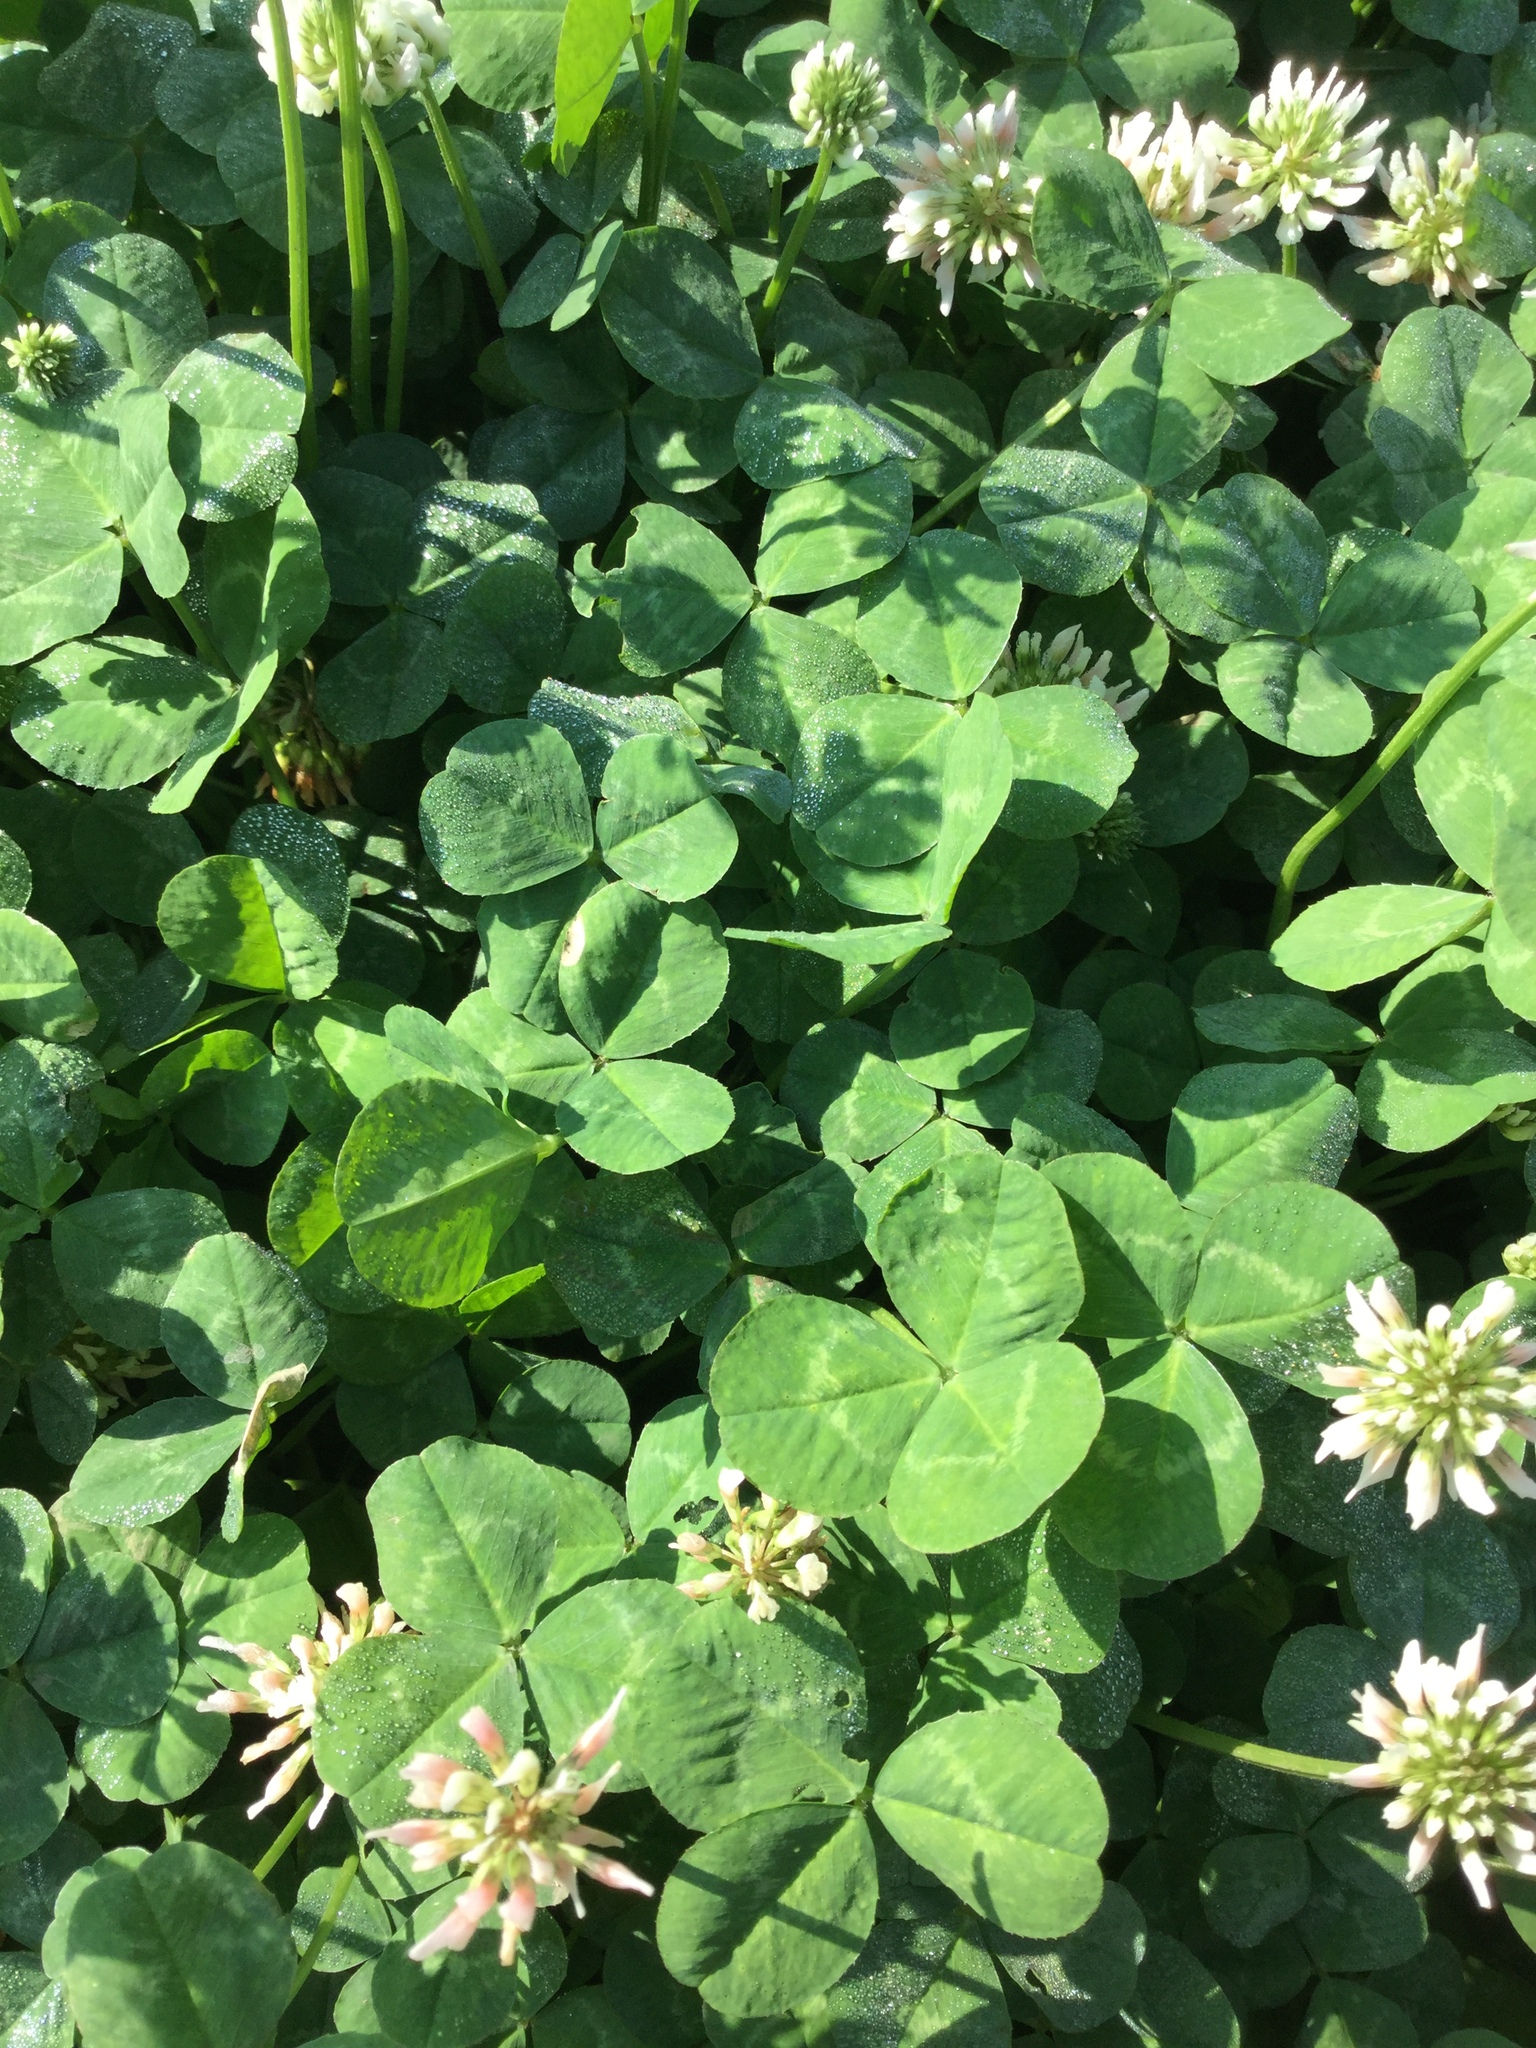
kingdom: Plantae
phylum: Tracheophyta
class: Magnoliopsida
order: Fabales
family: Fabaceae
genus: Trifolium
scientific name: Trifolium repens
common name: White clover
